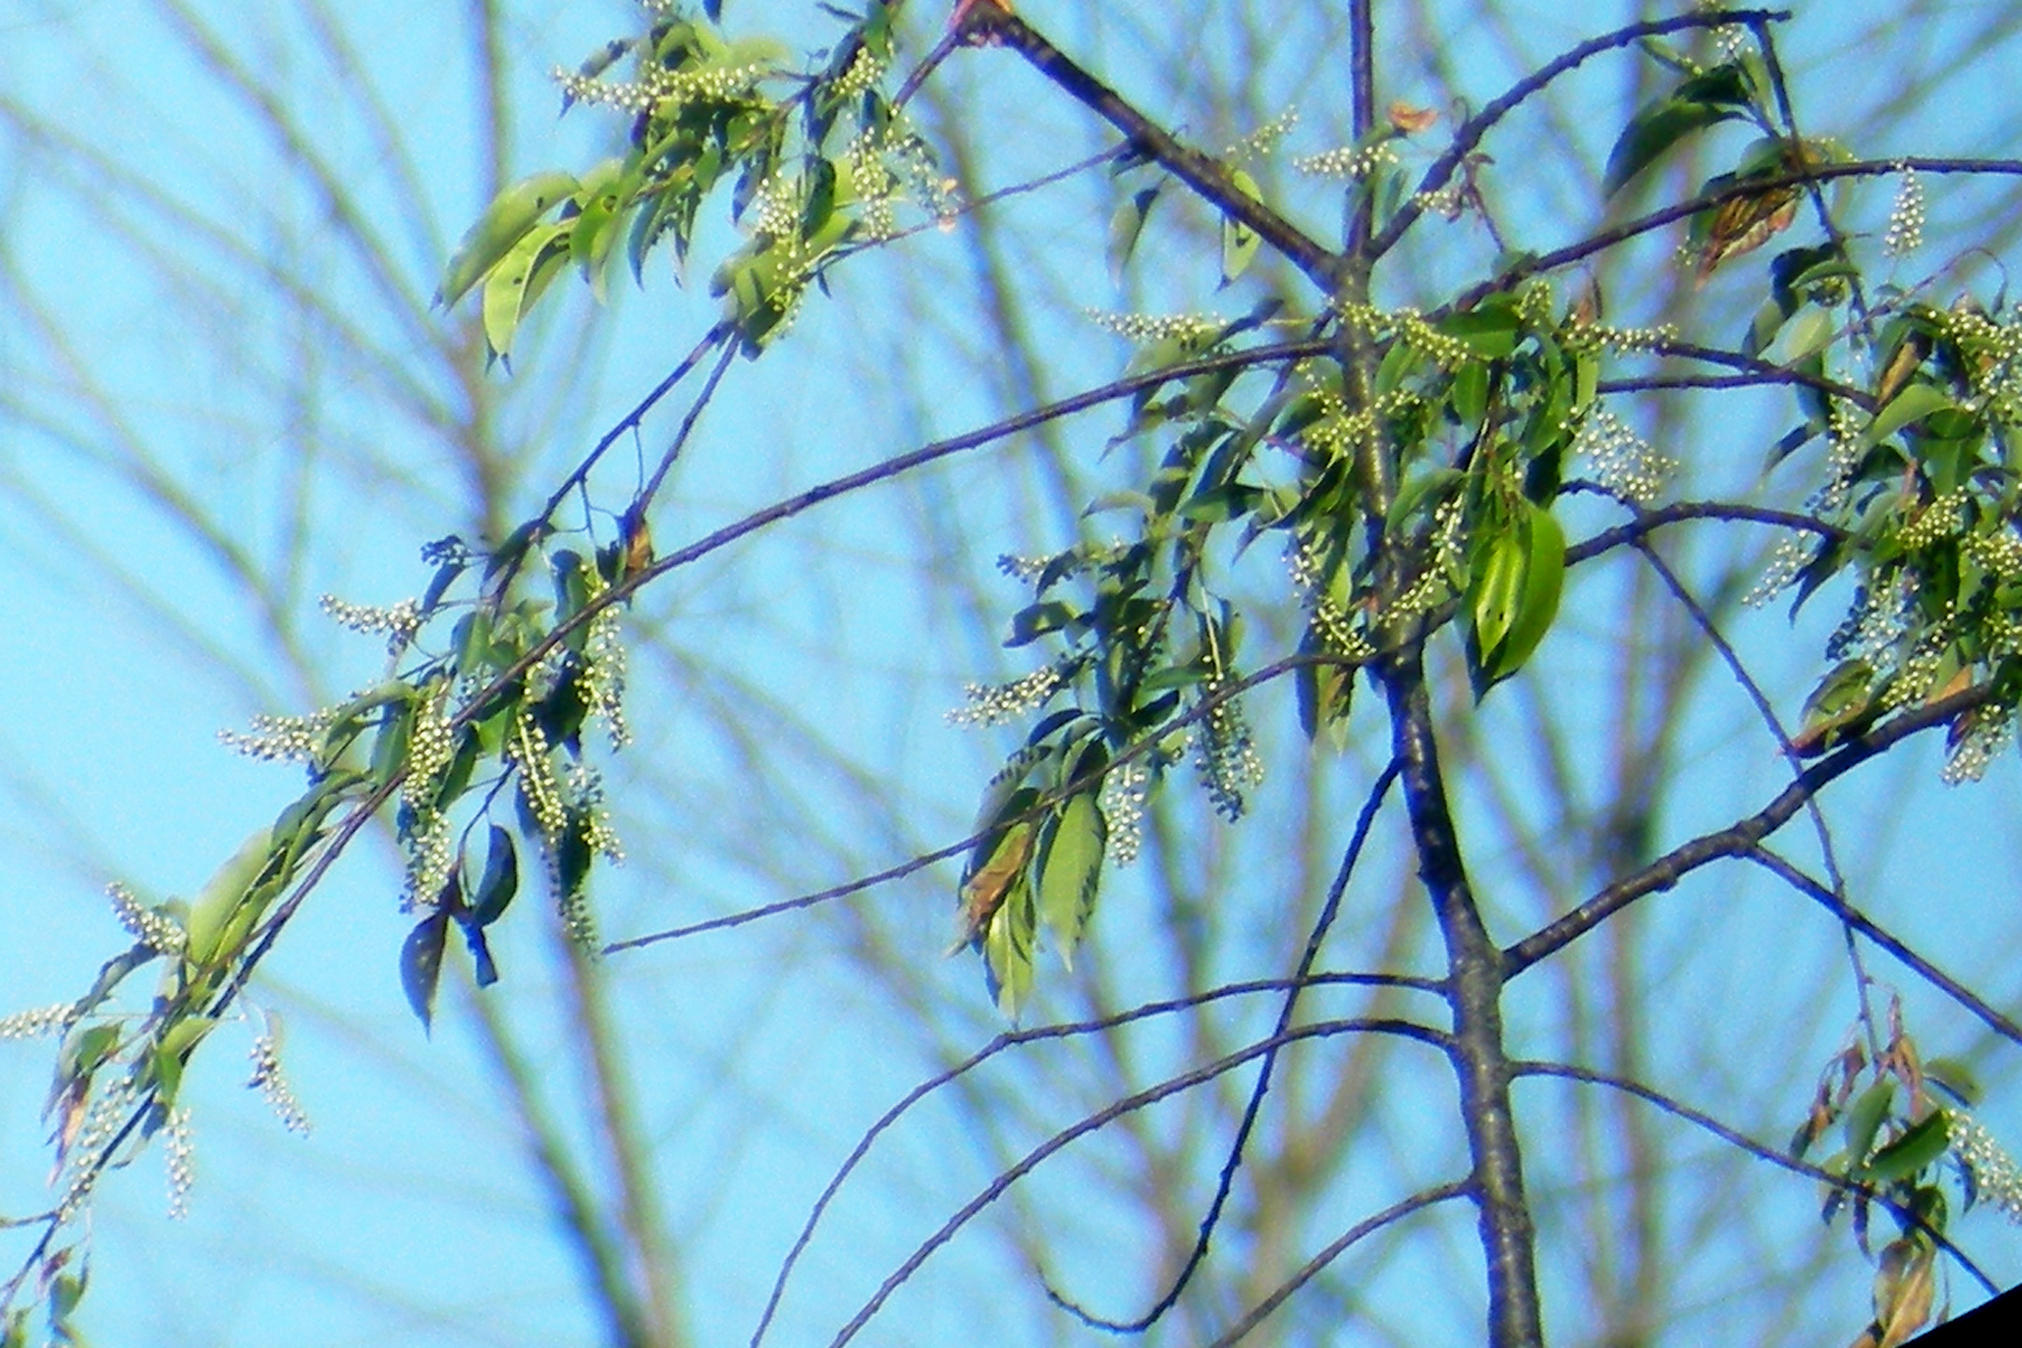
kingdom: Plantae
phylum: Tracheophyta
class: Magnoliopsida
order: Rosales
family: Rosaceae
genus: Prunus
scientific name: Prunus serotina
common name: Black cherry
